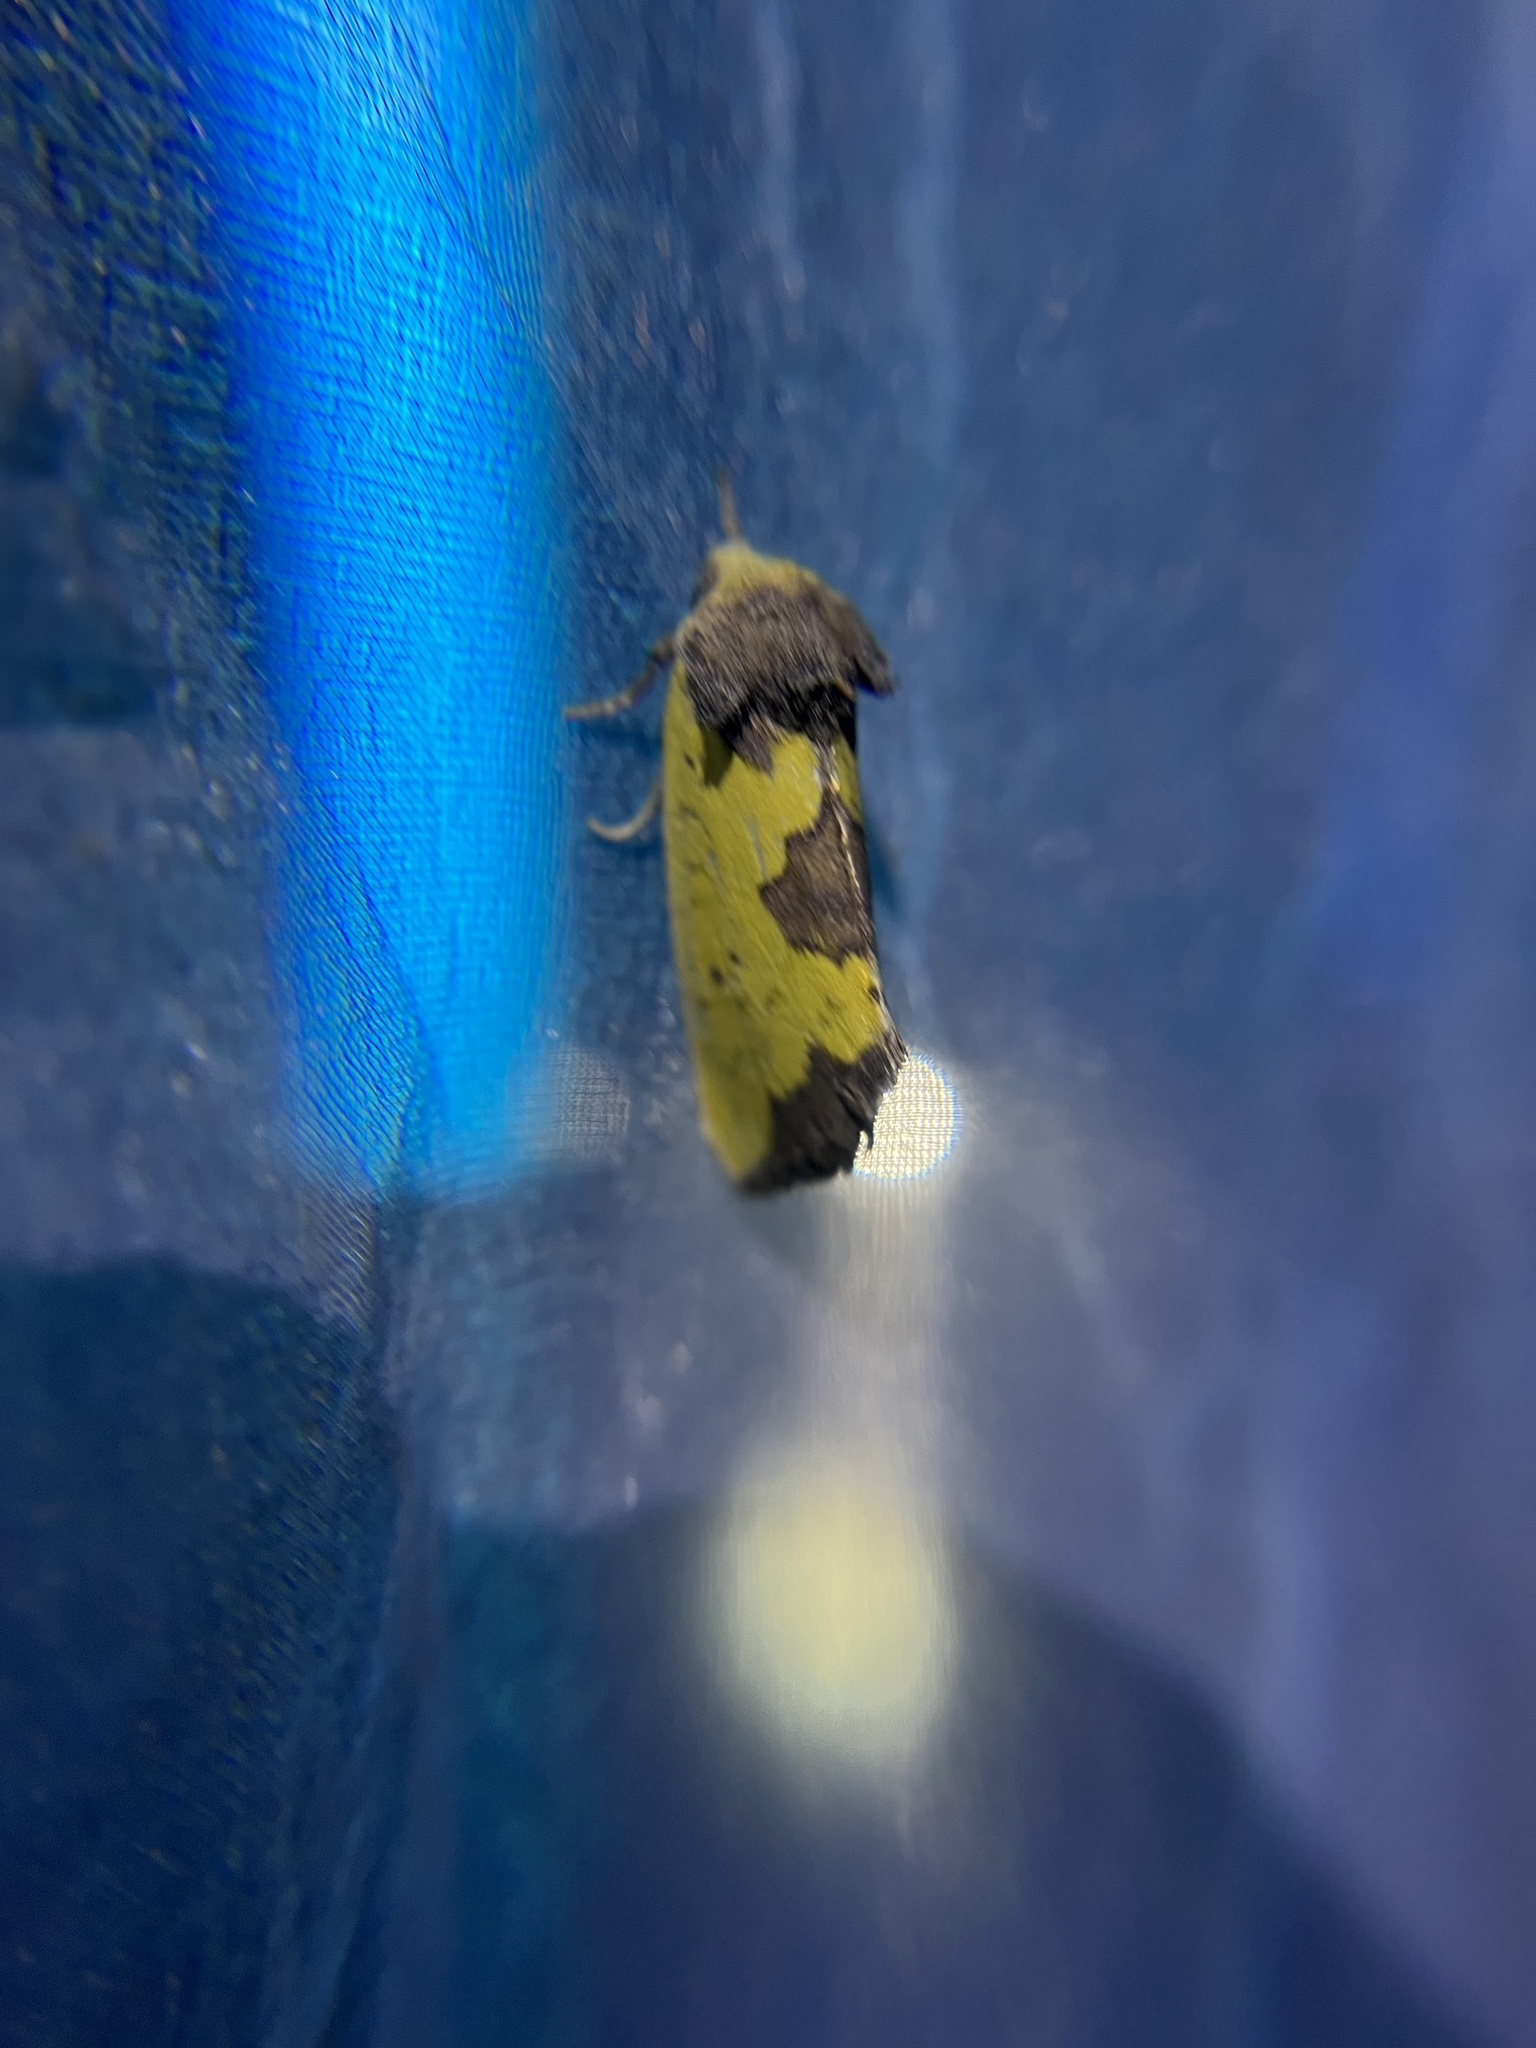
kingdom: Animalia
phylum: Arthropoda
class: Insecta
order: Lepidoptera
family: Noctuidae
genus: Stiria
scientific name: Stiria rugifrons
